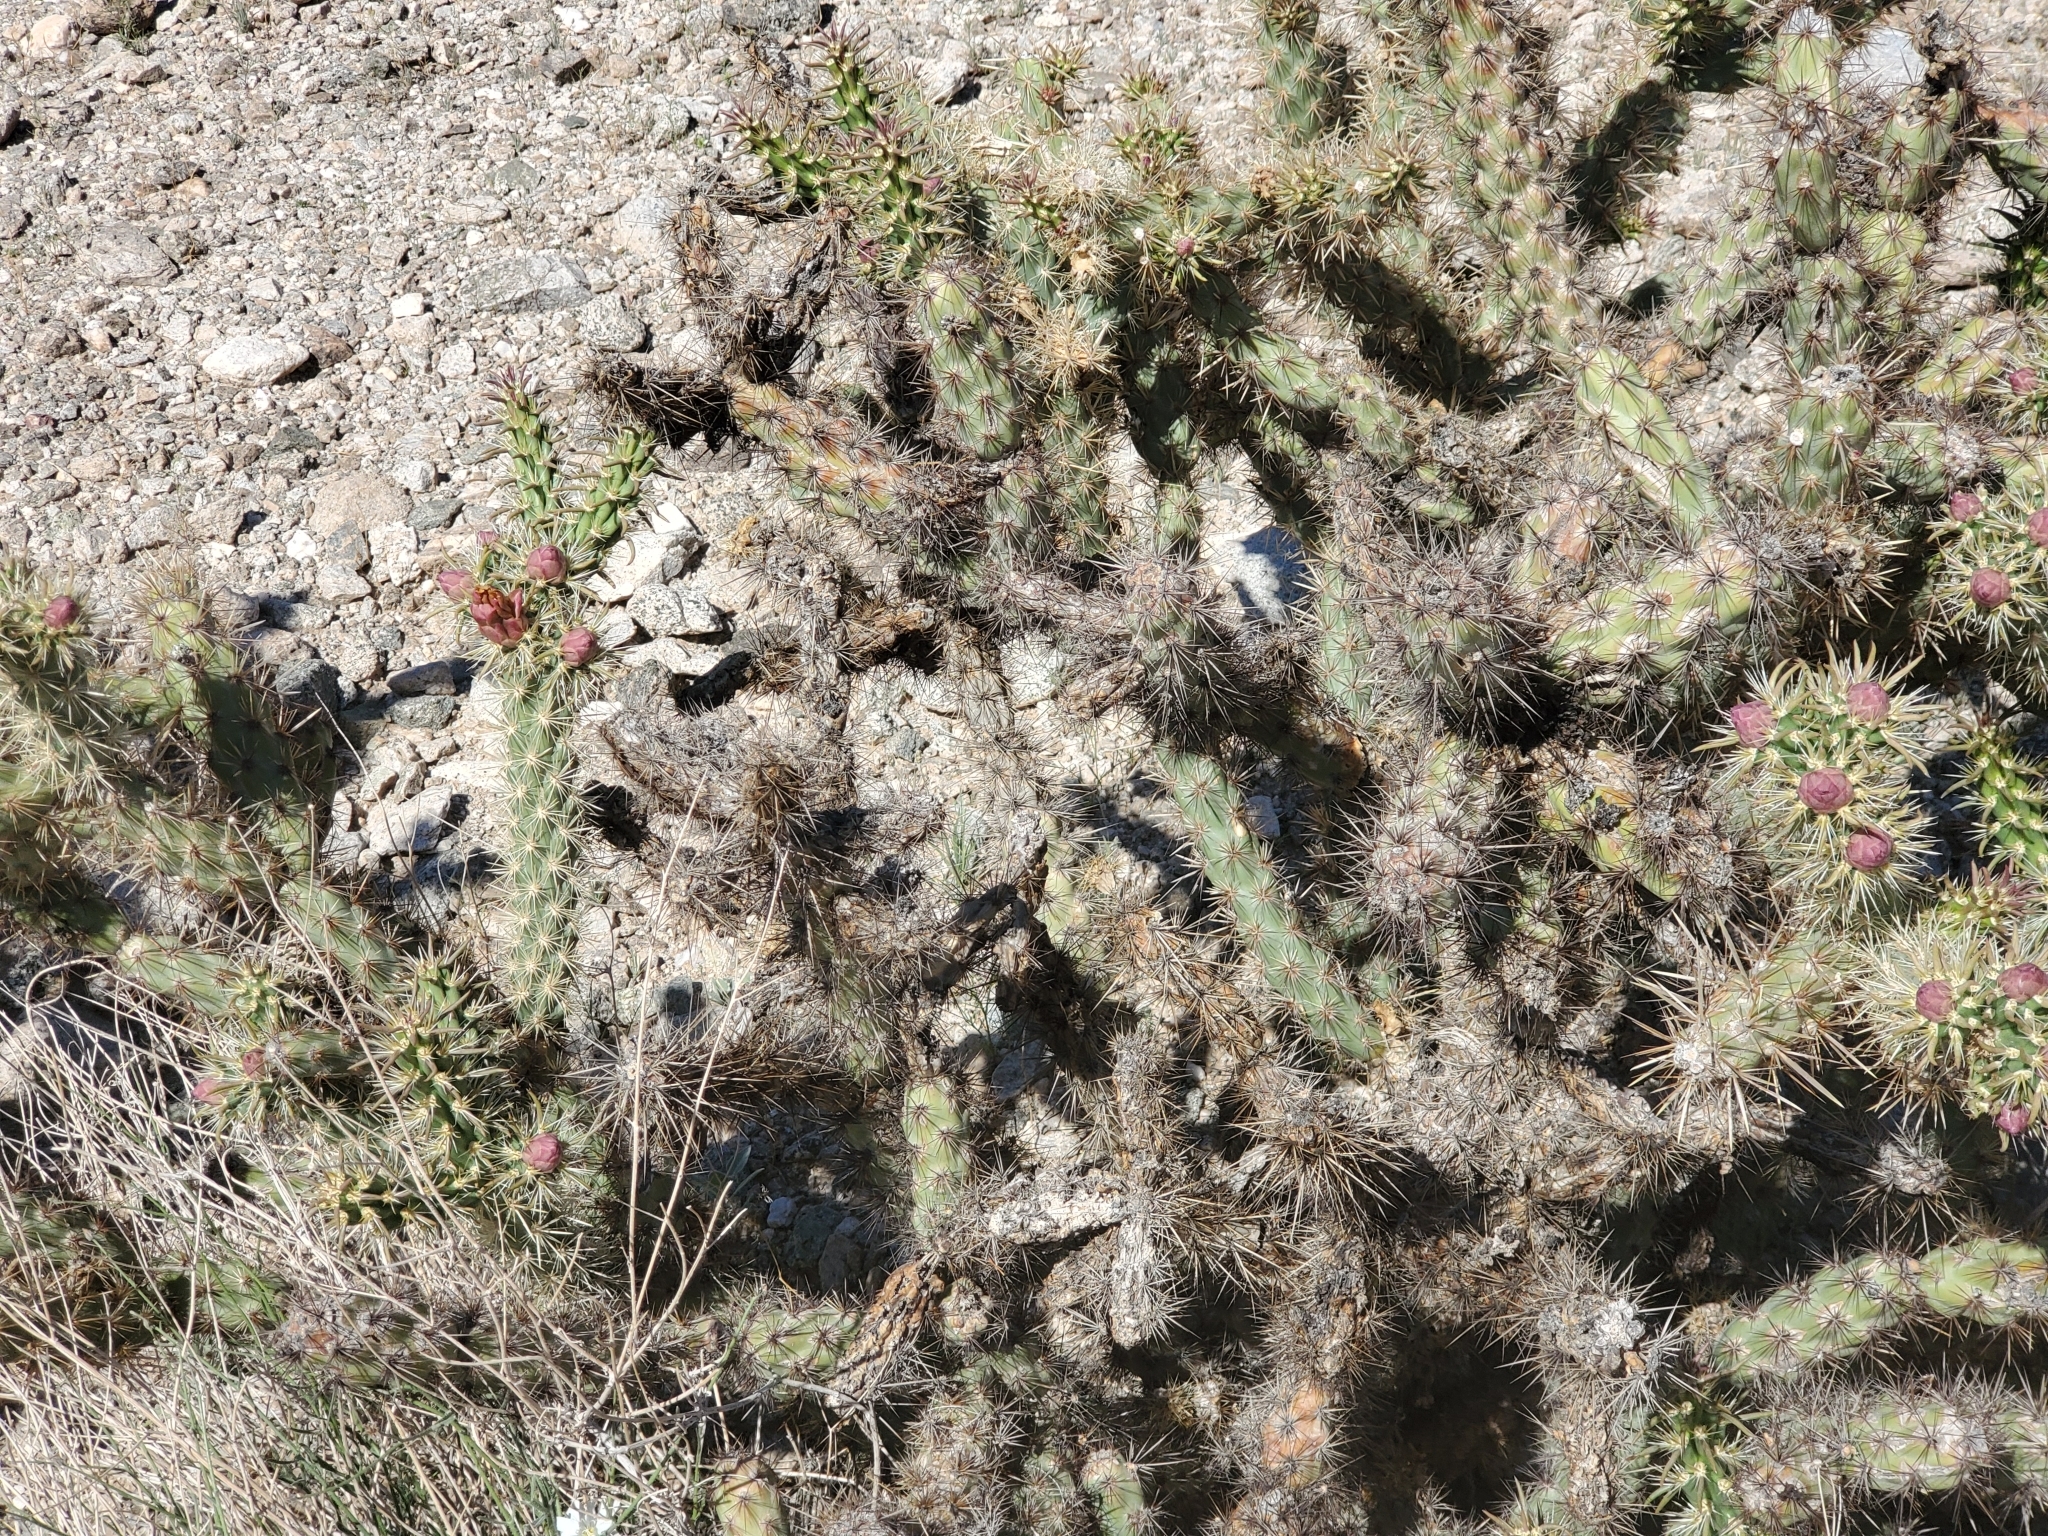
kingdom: Plantae
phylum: Tracheophyta
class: Magnoliopsida
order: Caryophyllales
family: Cactaceae
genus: Cylindropuntia
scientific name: Cylindropuntia acanthocarpa
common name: Buckhorn cholla
